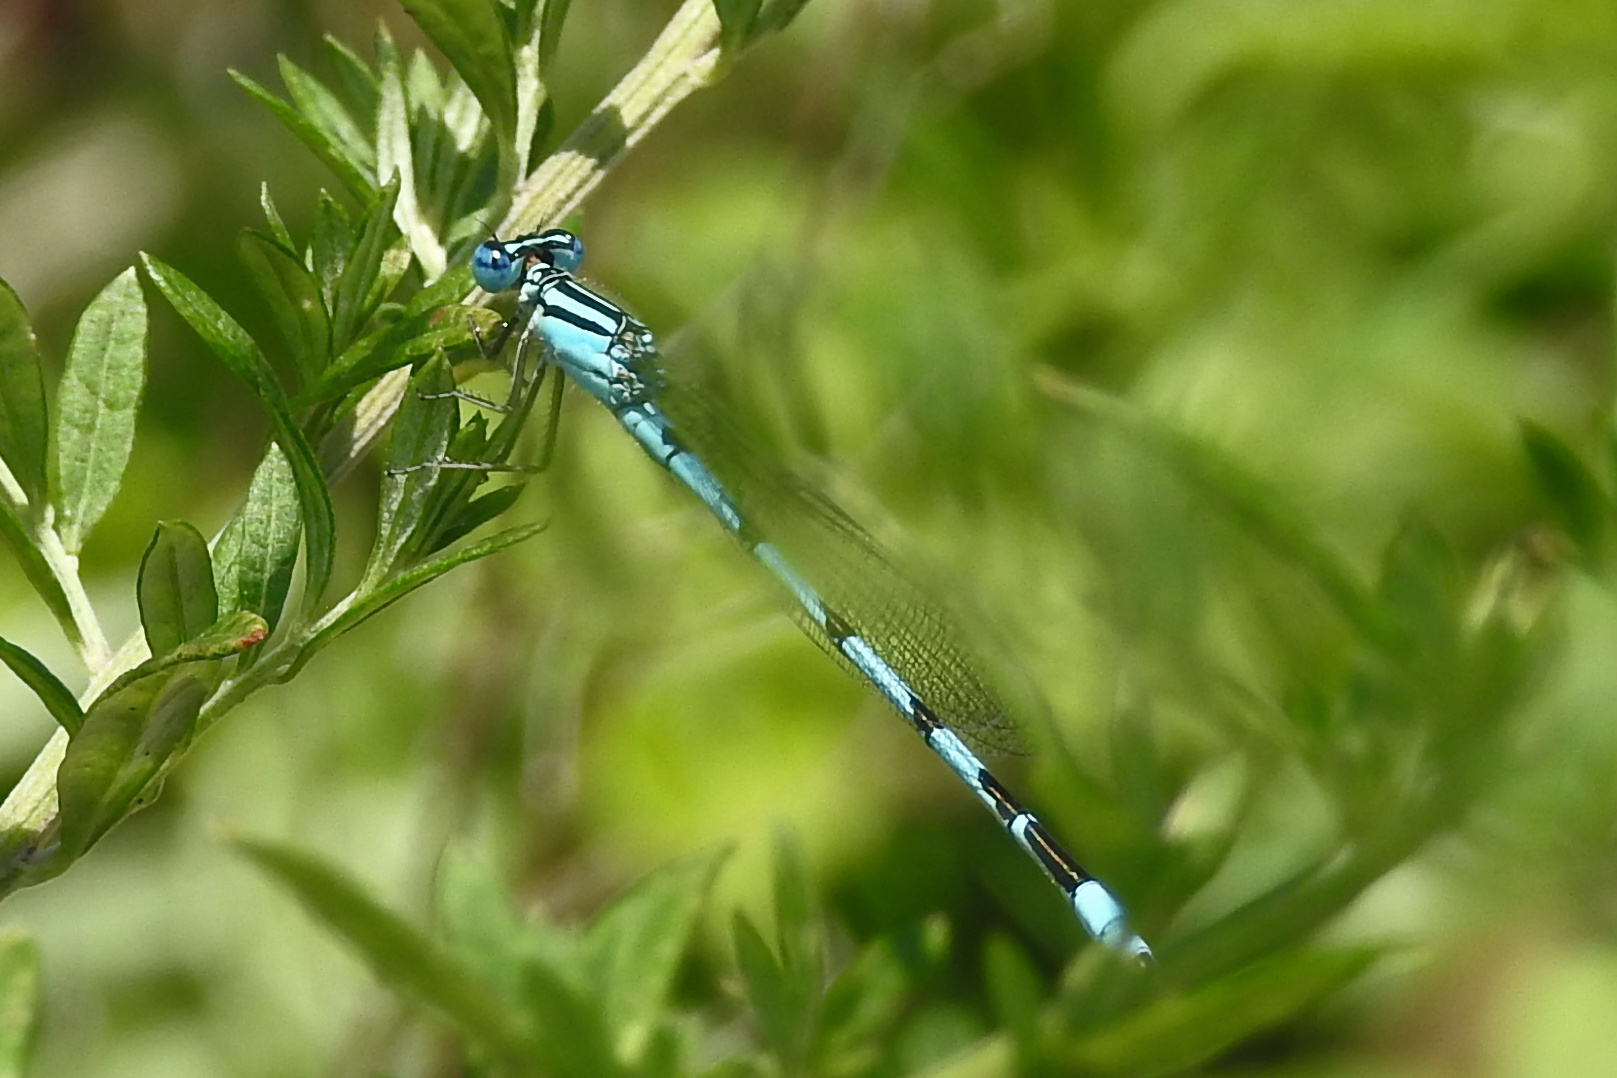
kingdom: Animalia
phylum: Arthropoda
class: Insecta
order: Odonata
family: Coenagrionidae
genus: Enallagma
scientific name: Enallagma durum
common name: Big bluet
